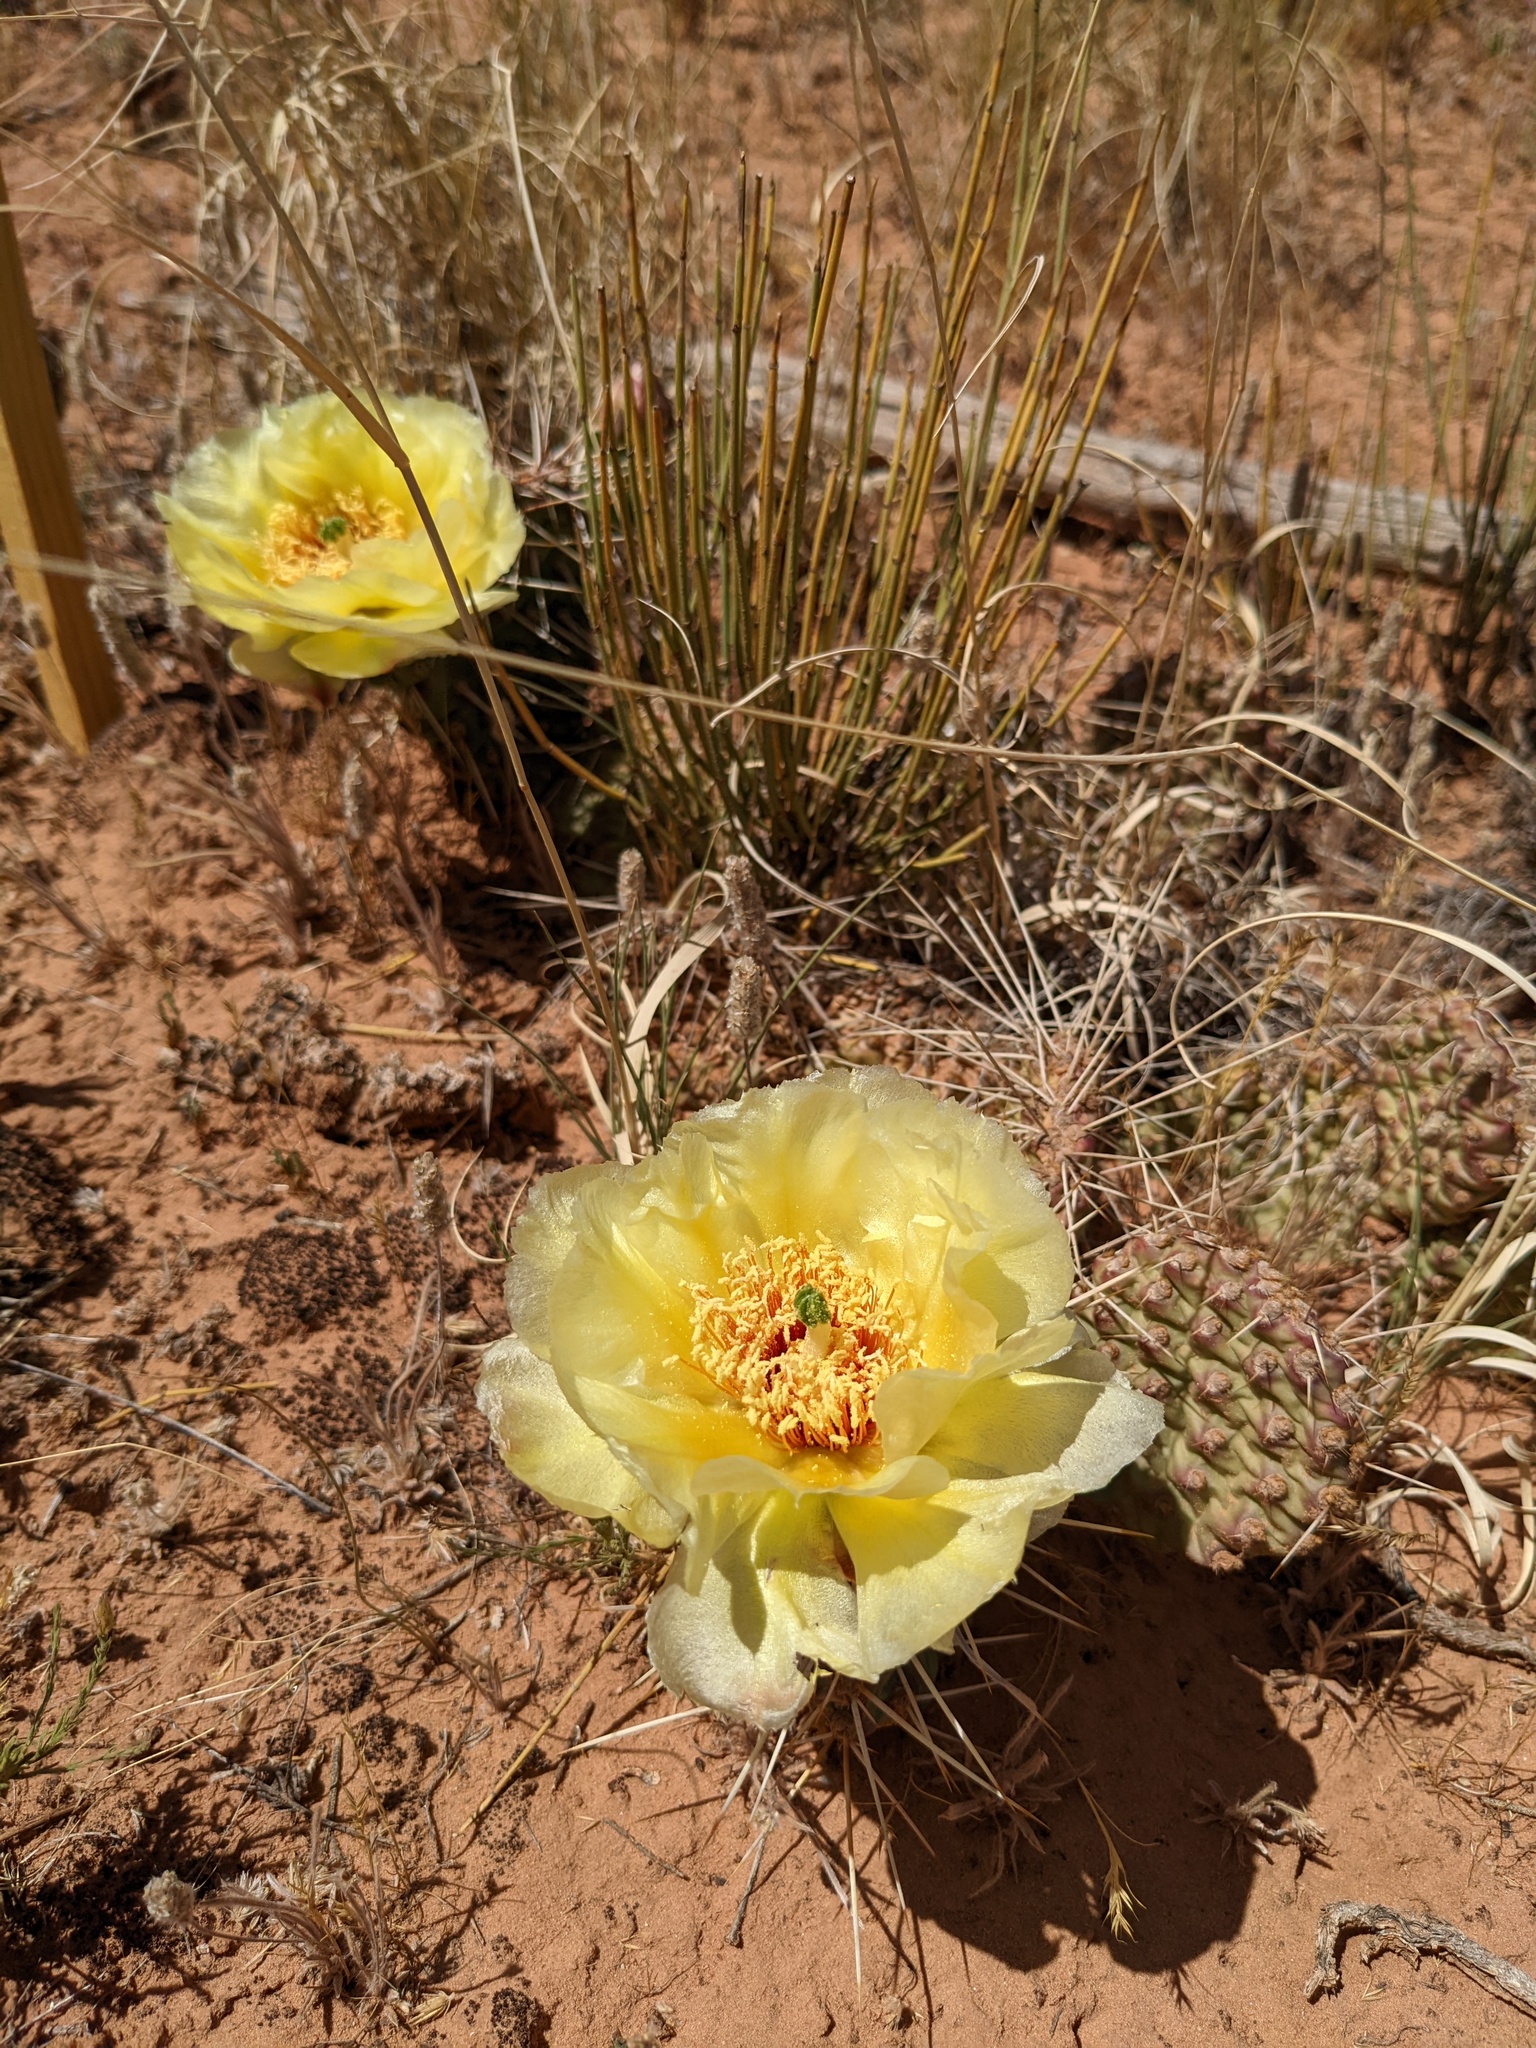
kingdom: Plantae
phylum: Tracheophyta
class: Magnoliopsida
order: Caryophyllales
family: Cactaceae
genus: Opuntia
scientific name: Opuntia polyacantha
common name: Plains prickly-pear
